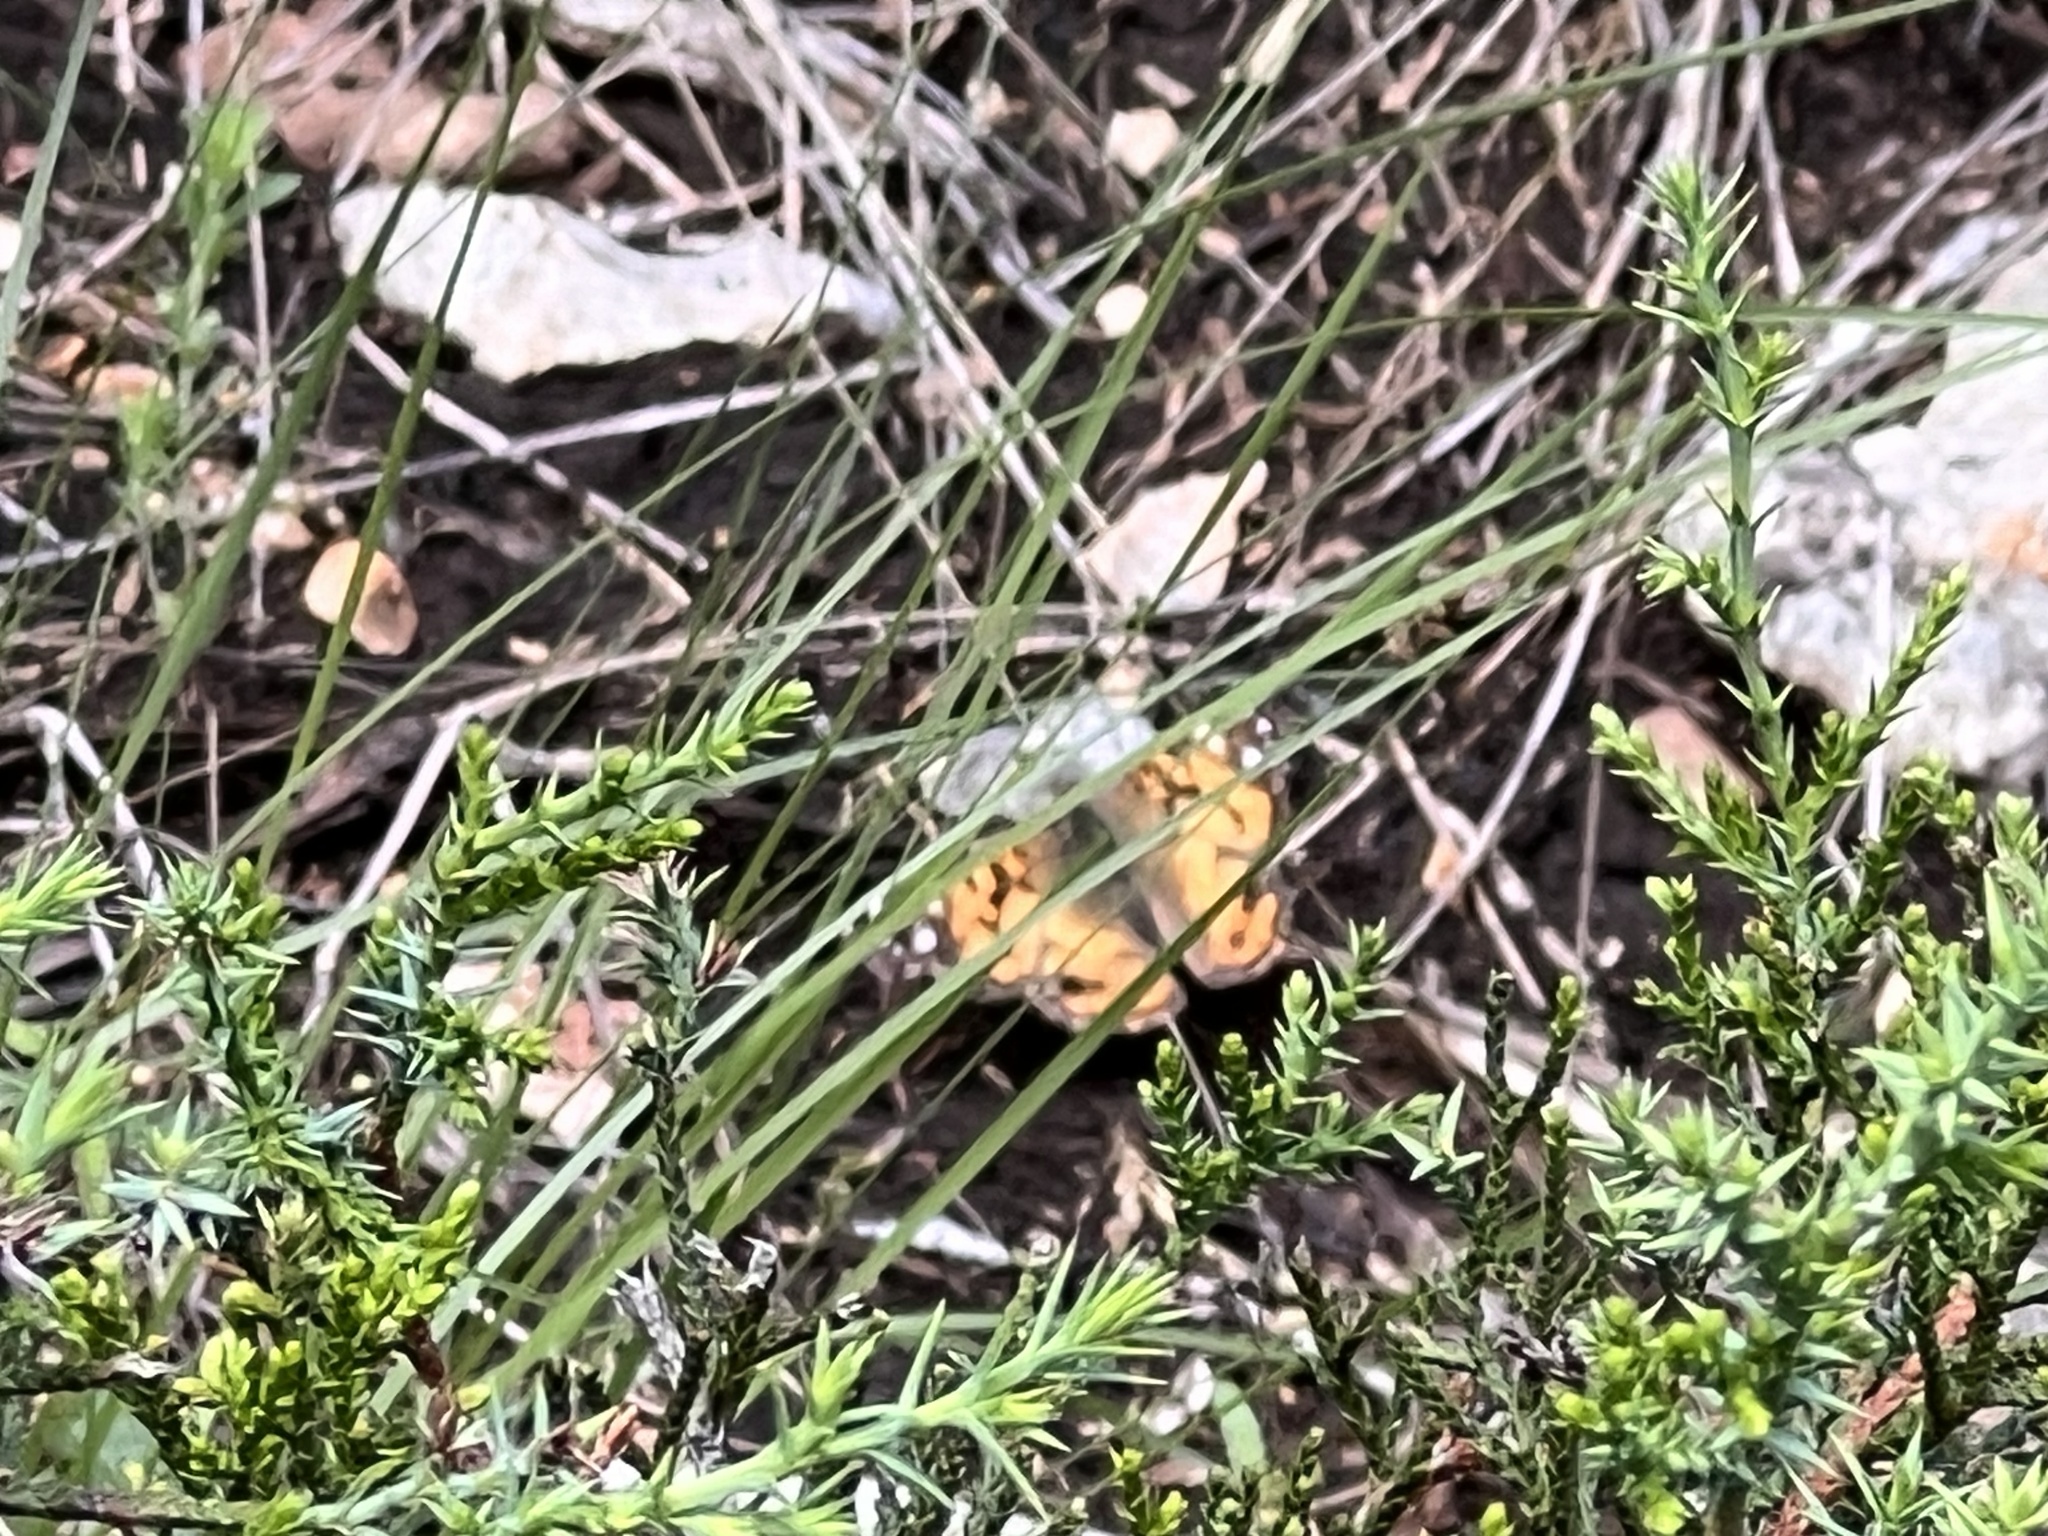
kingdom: Animalia
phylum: Arthropoda
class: Insecta
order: Lepidoptera
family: Nymphalidae
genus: Vanessa
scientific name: Vanessa virginiensis
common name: American lady
